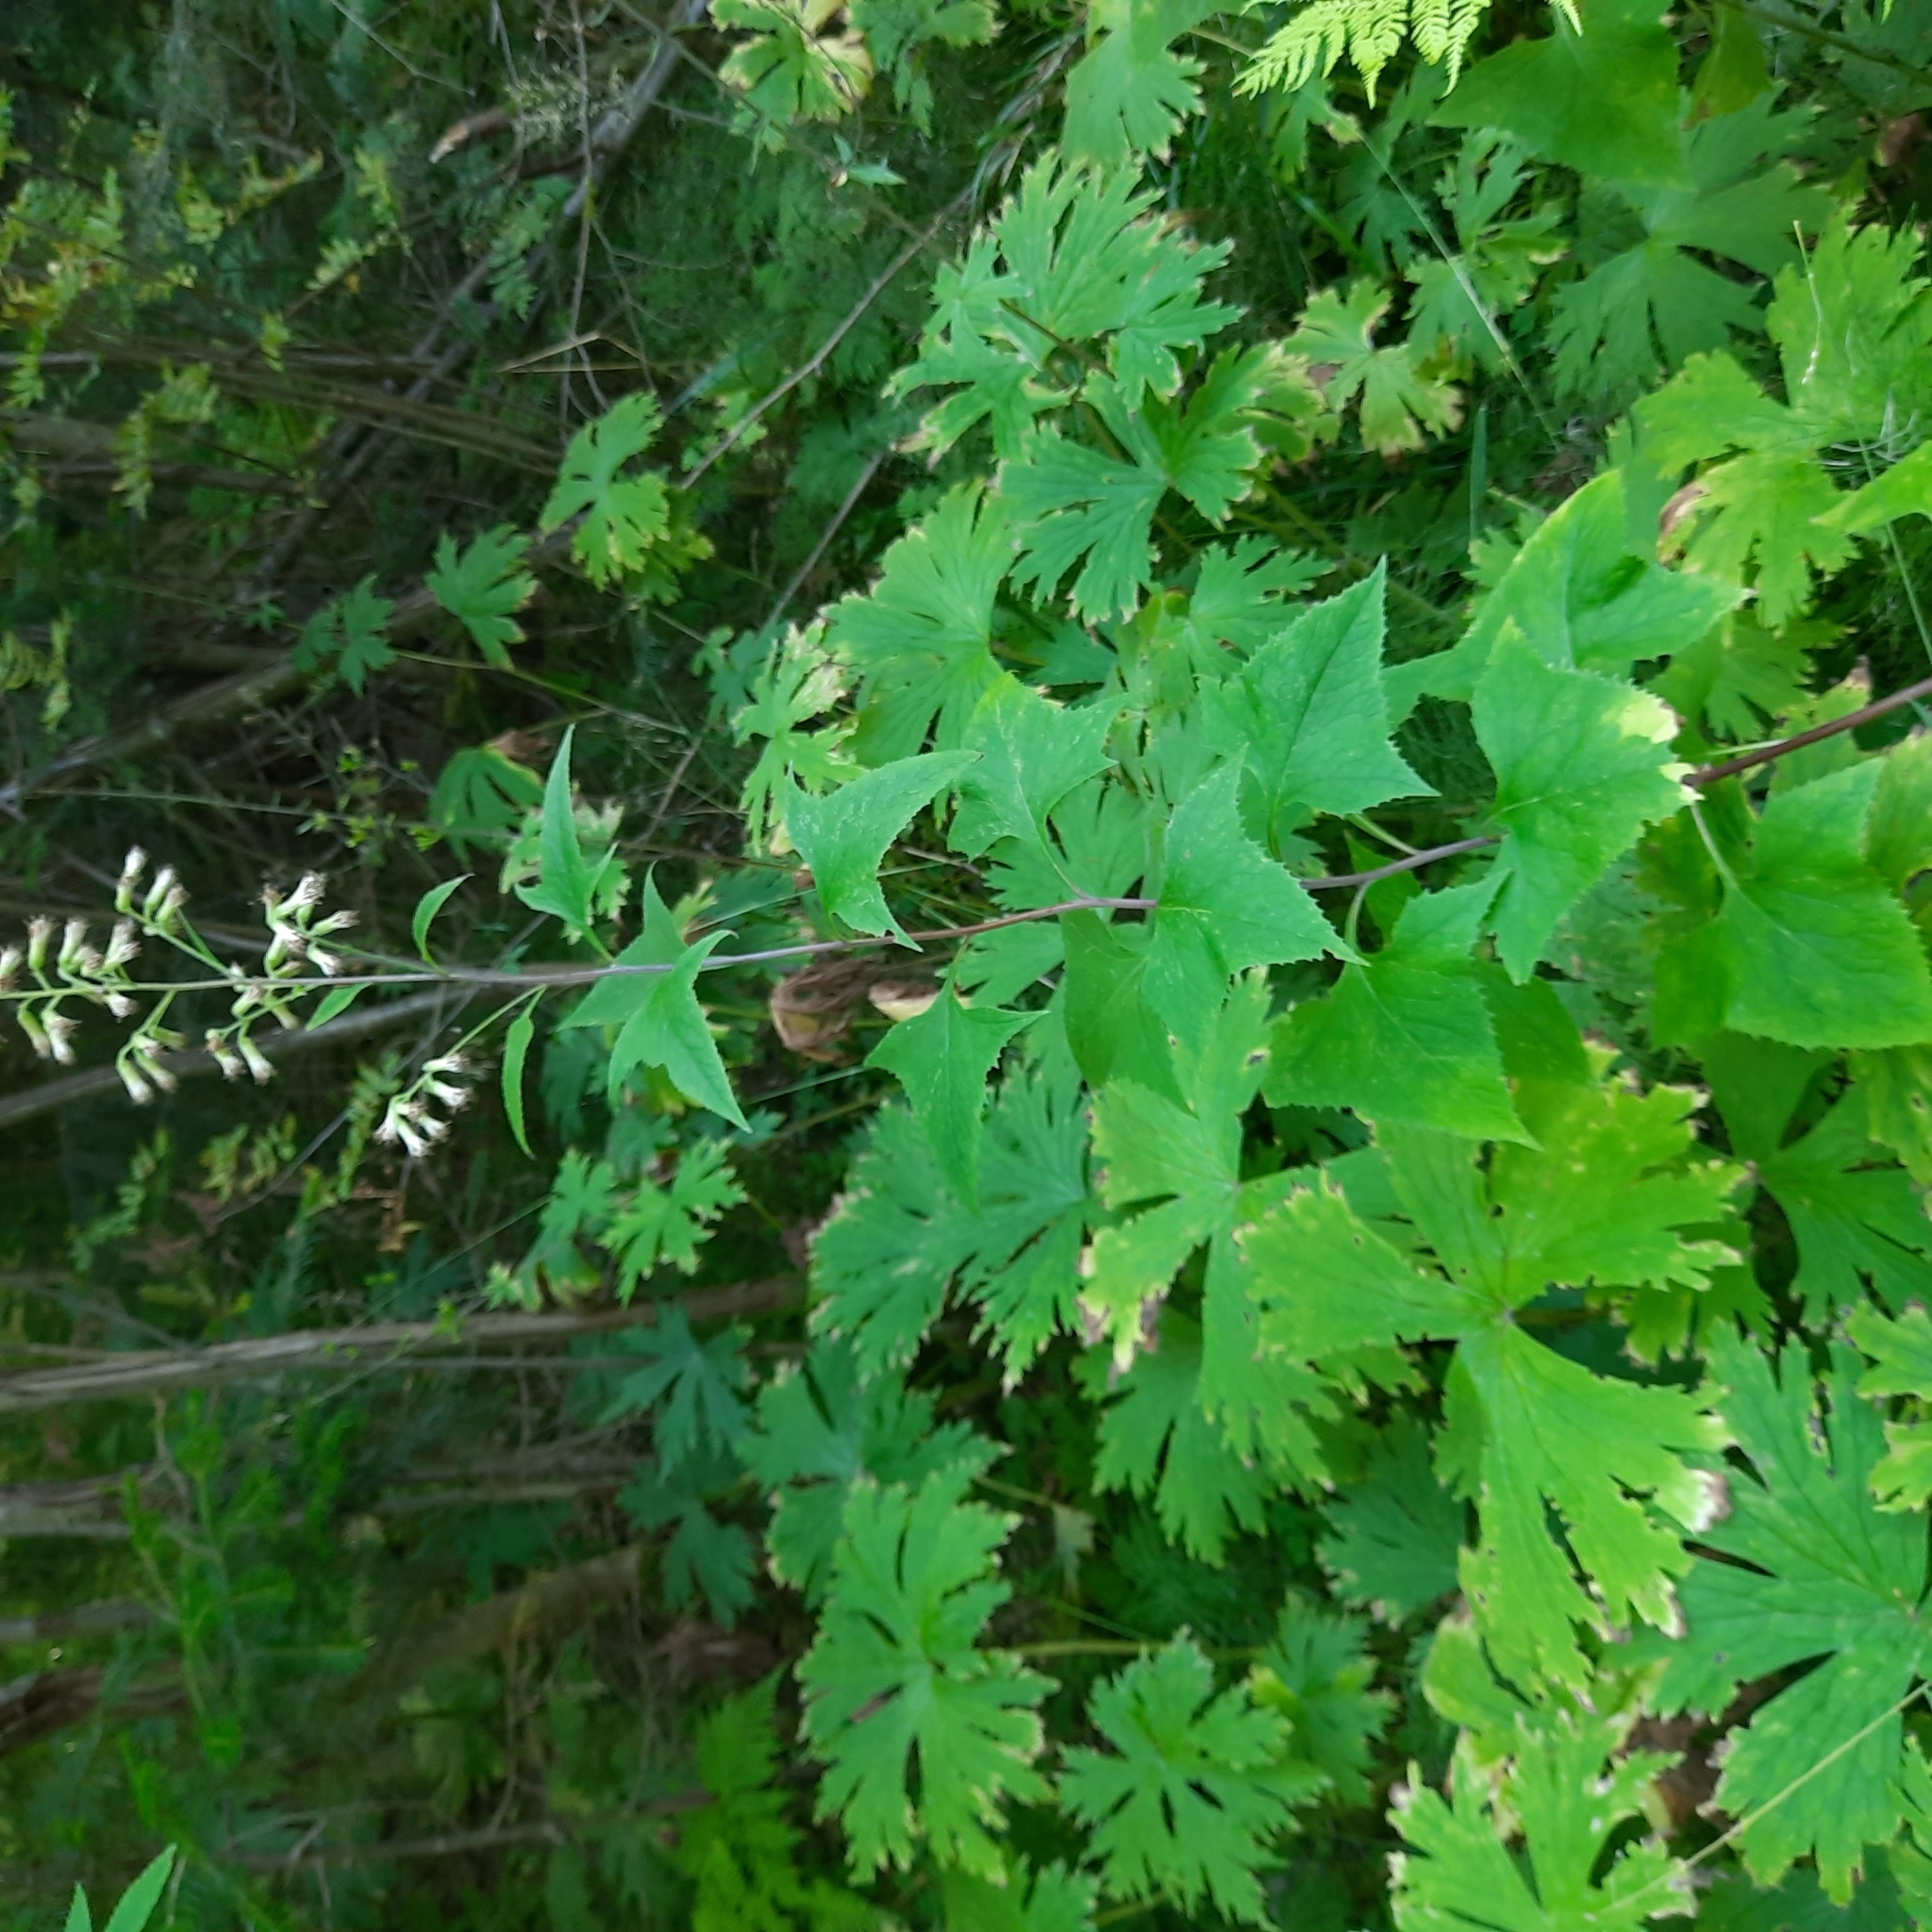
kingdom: Plantae
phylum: Tracheophyta
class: Magnoliopsida
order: Asterales
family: Asteraceae
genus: Parasenecio
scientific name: Parasenecio hastatus
